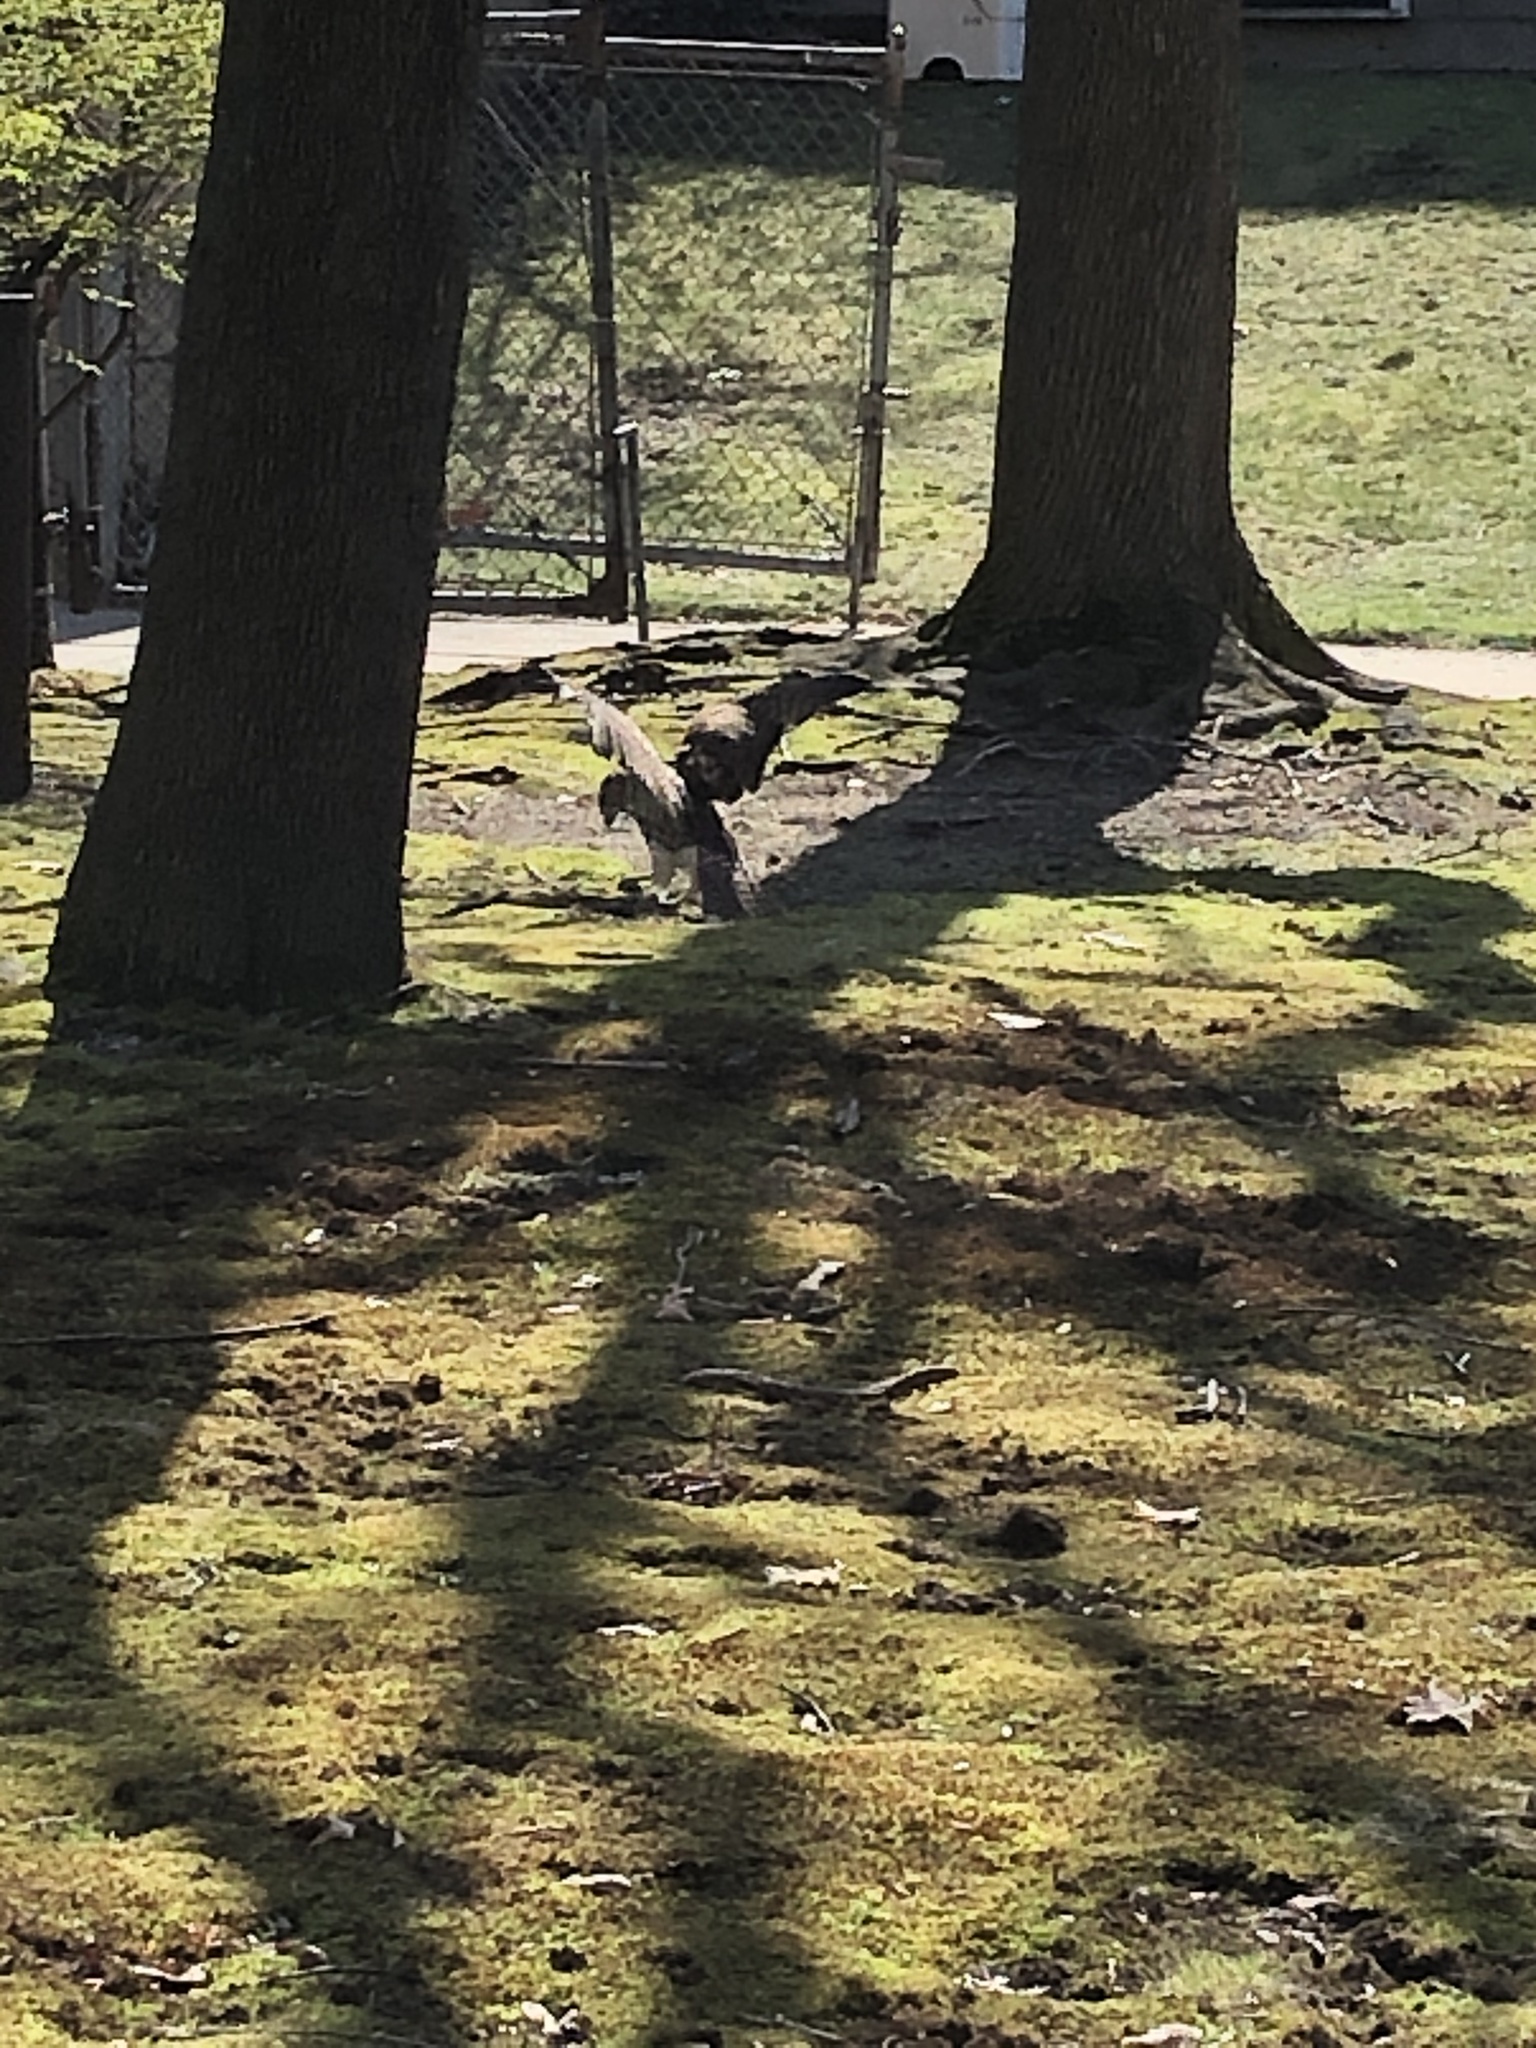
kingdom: Animalia
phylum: Chordata
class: Aves
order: Accipitriformes
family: Accipitridae
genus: Buteo
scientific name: Buteo jamaicensis
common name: Red-tailed hawk
